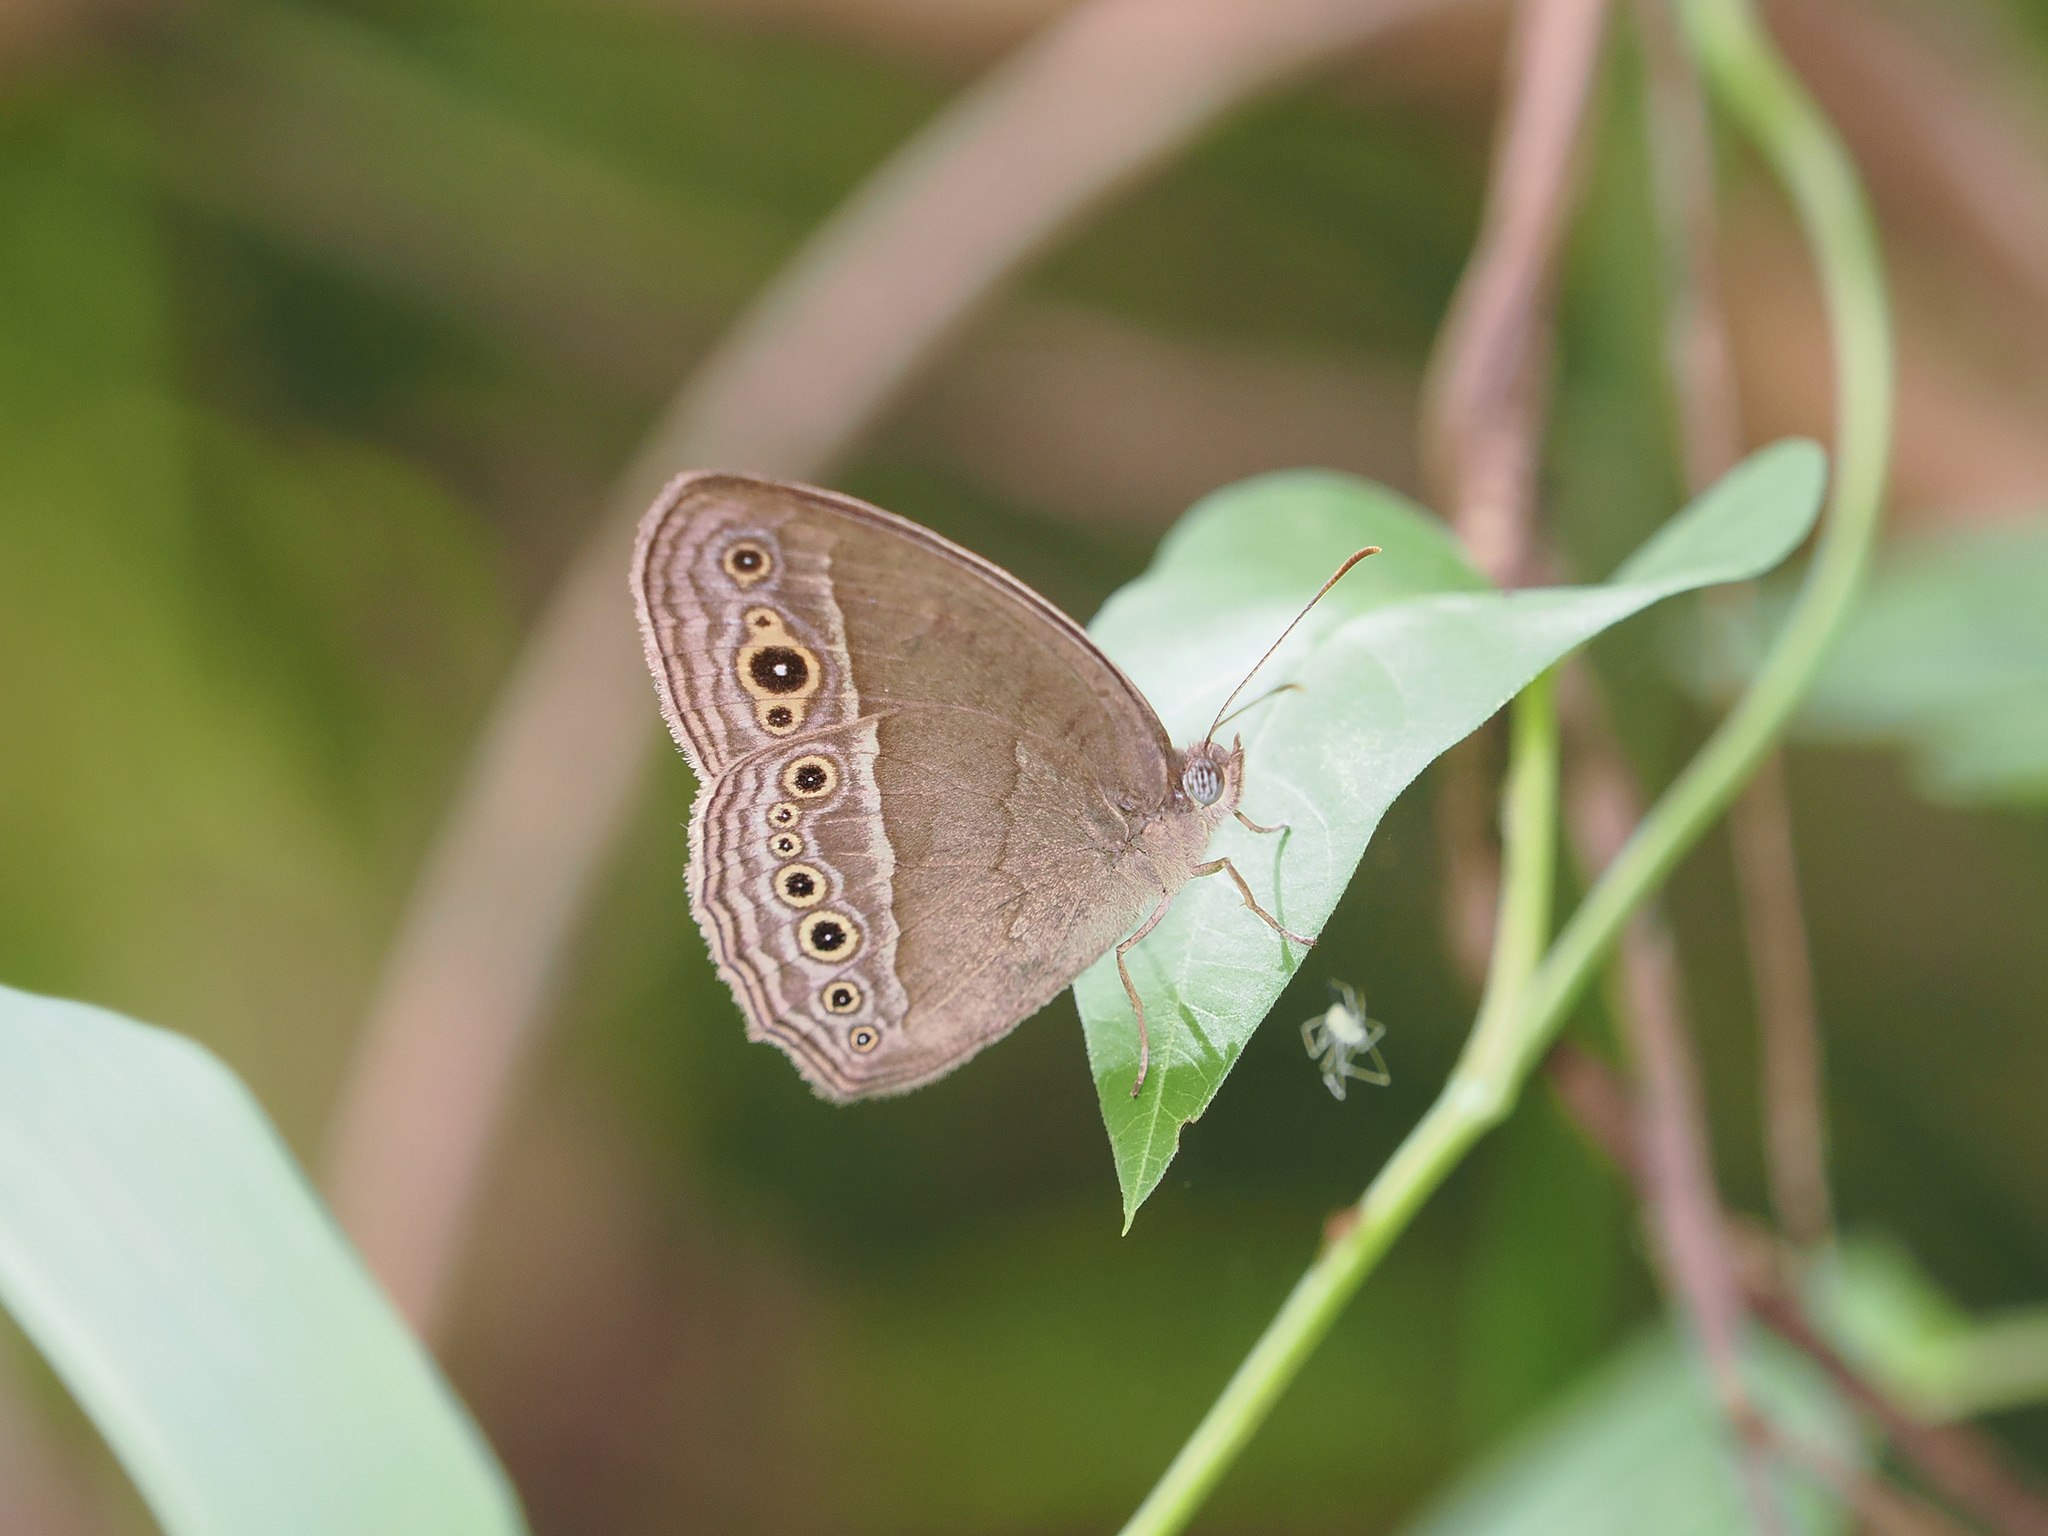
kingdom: Animalia
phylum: Arthropoda
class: Insecta
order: Lepidoptera
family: Nymphalidae
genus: Mycalesis
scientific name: Mycalesis perseoides
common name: Burmese bushbrown
